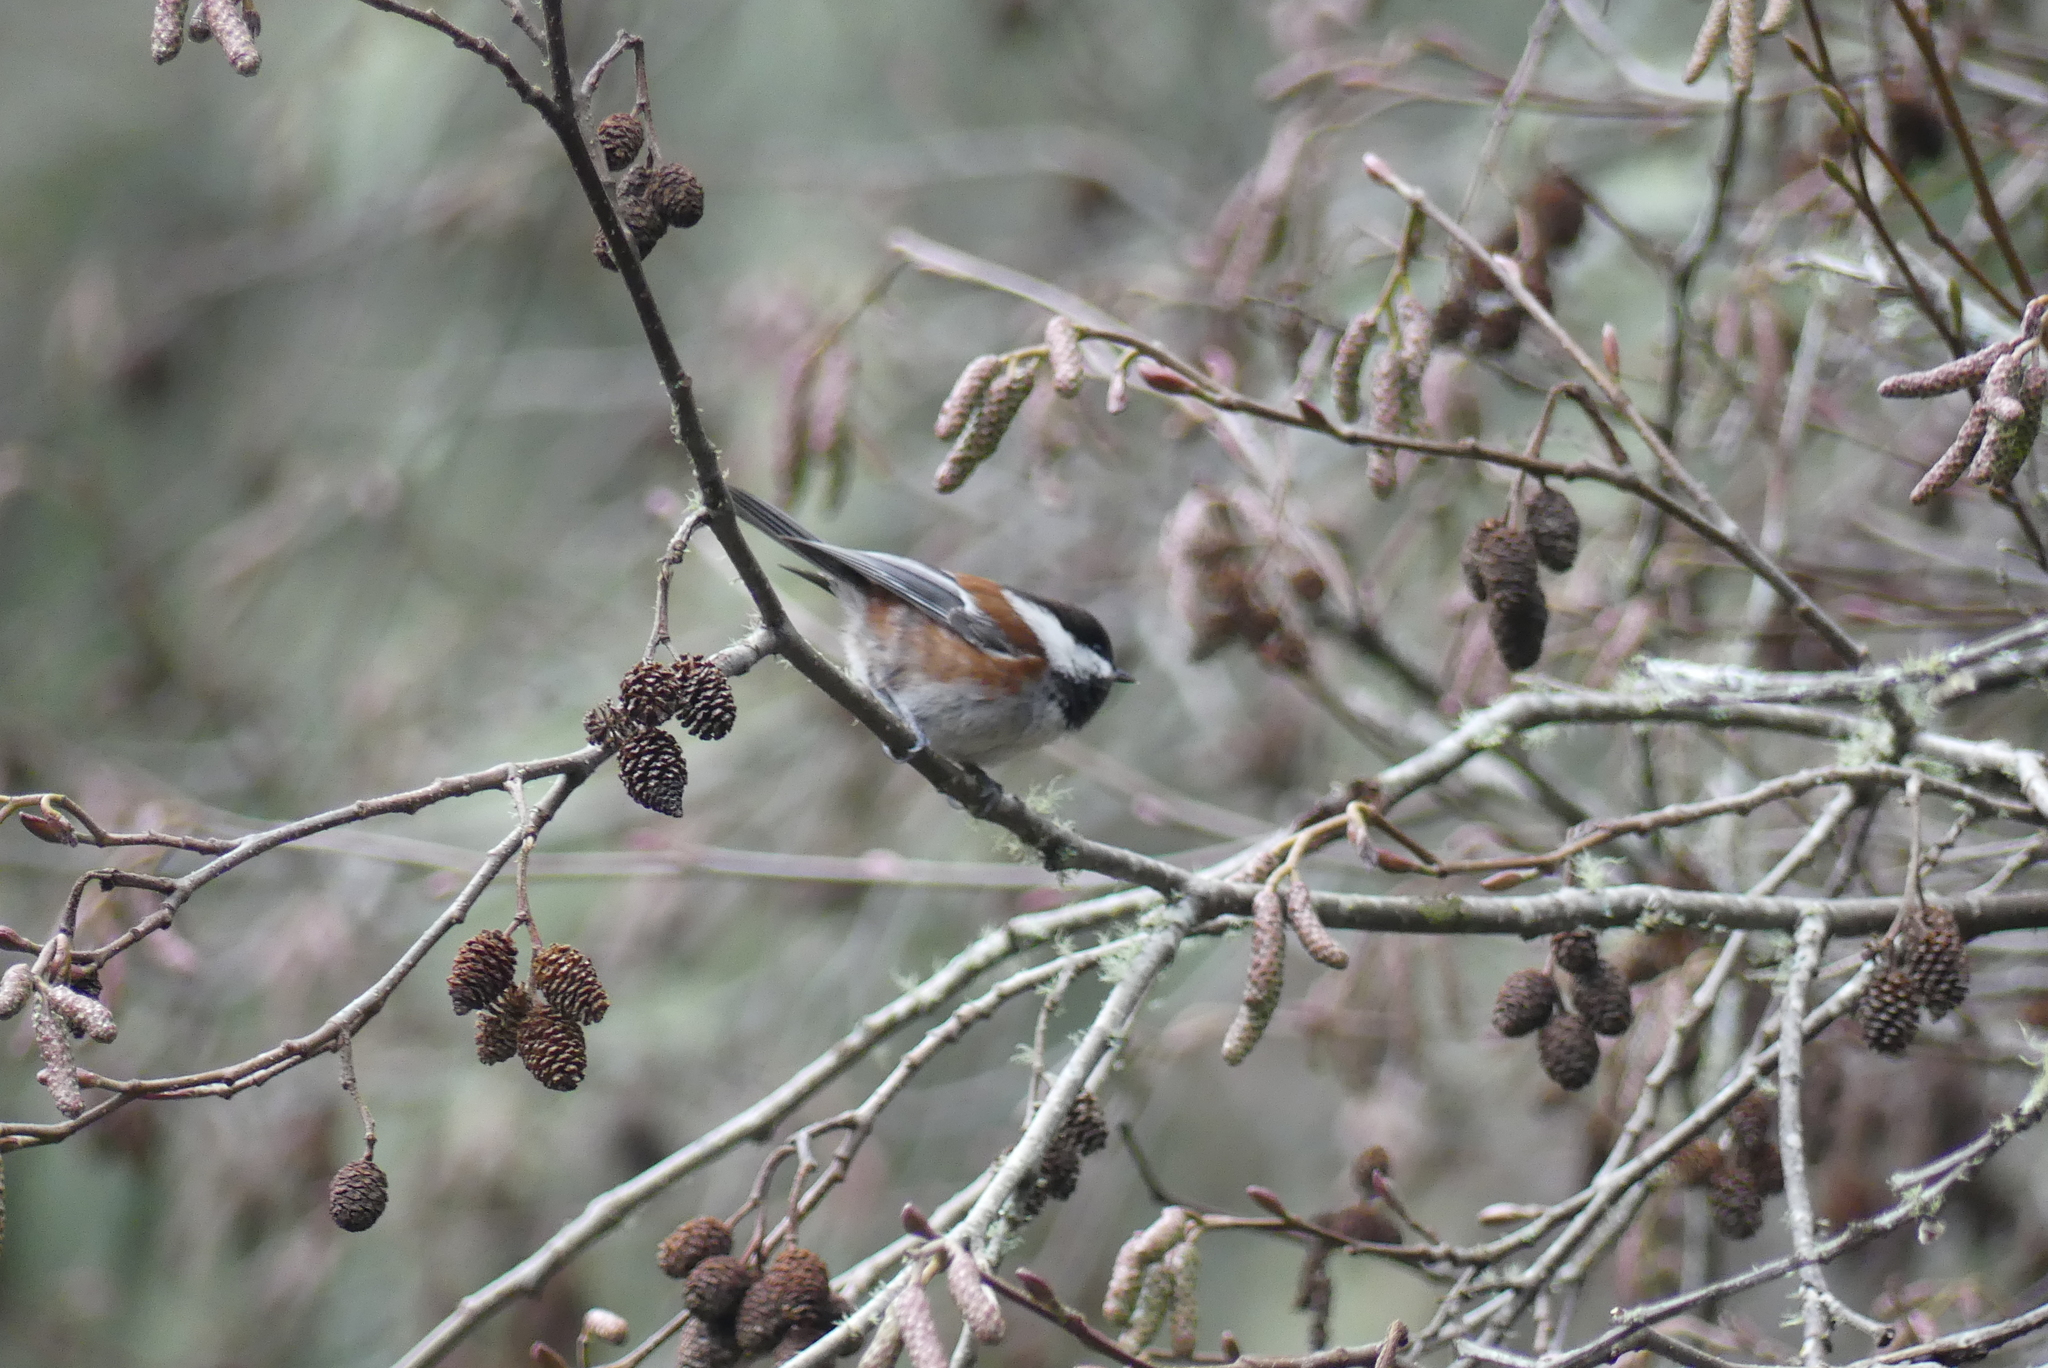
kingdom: Animalia
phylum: Chordata
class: Aves
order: Passeriformes
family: Paridae
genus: Poecile
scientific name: Poecile rufescens
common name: Chestnut-backed chickadee
